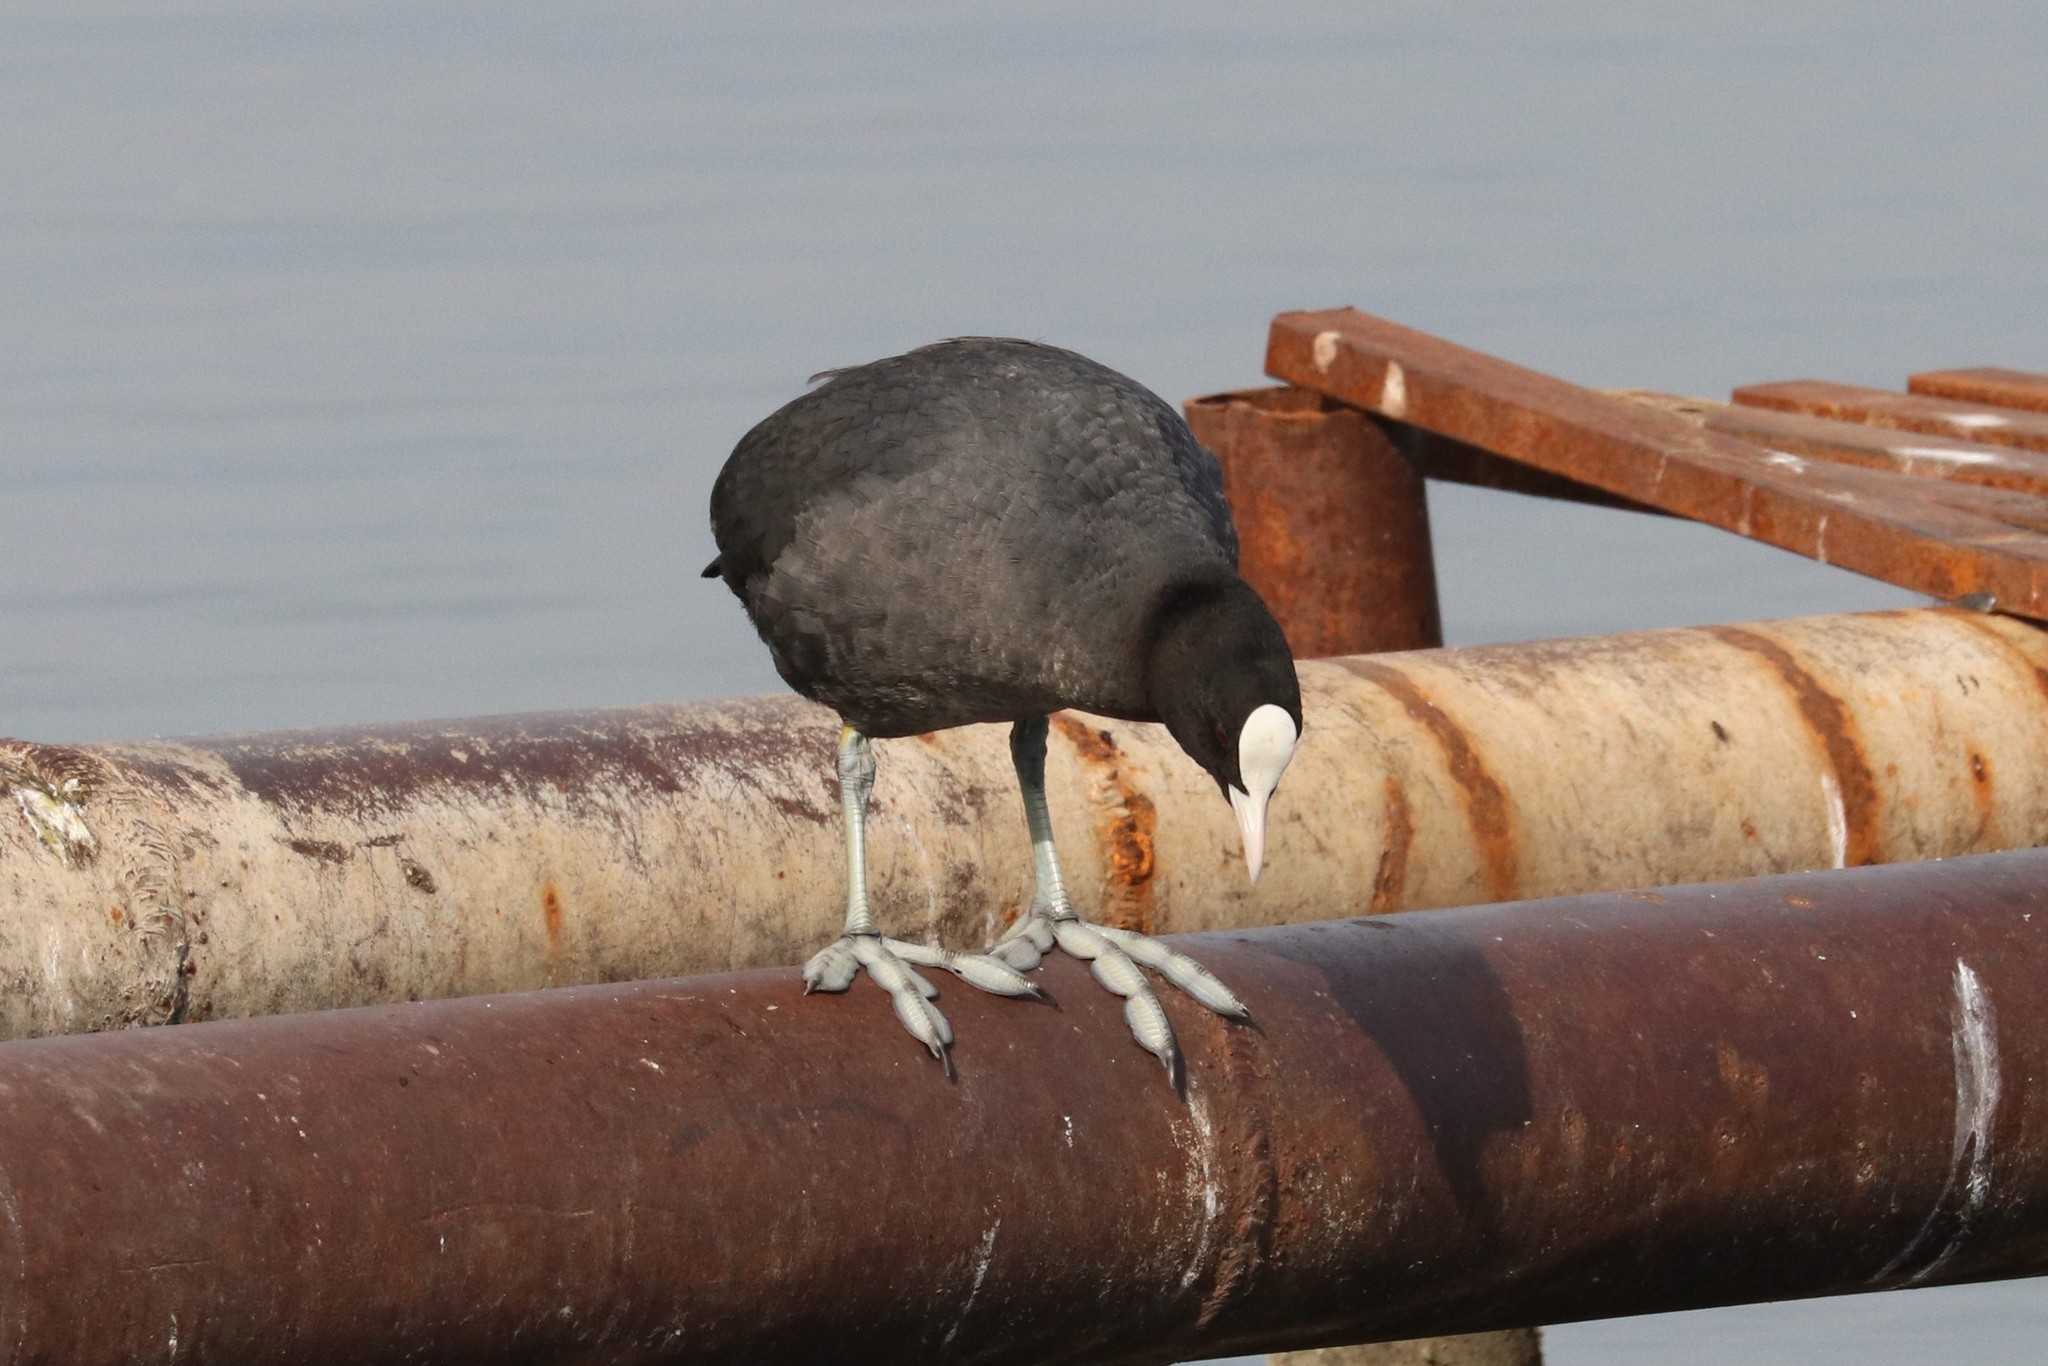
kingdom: Animalia
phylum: Chordata
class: Aves
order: Gruiformes
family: Rallidae
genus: Fulica
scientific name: Fulica atra
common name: Eurasian coot
